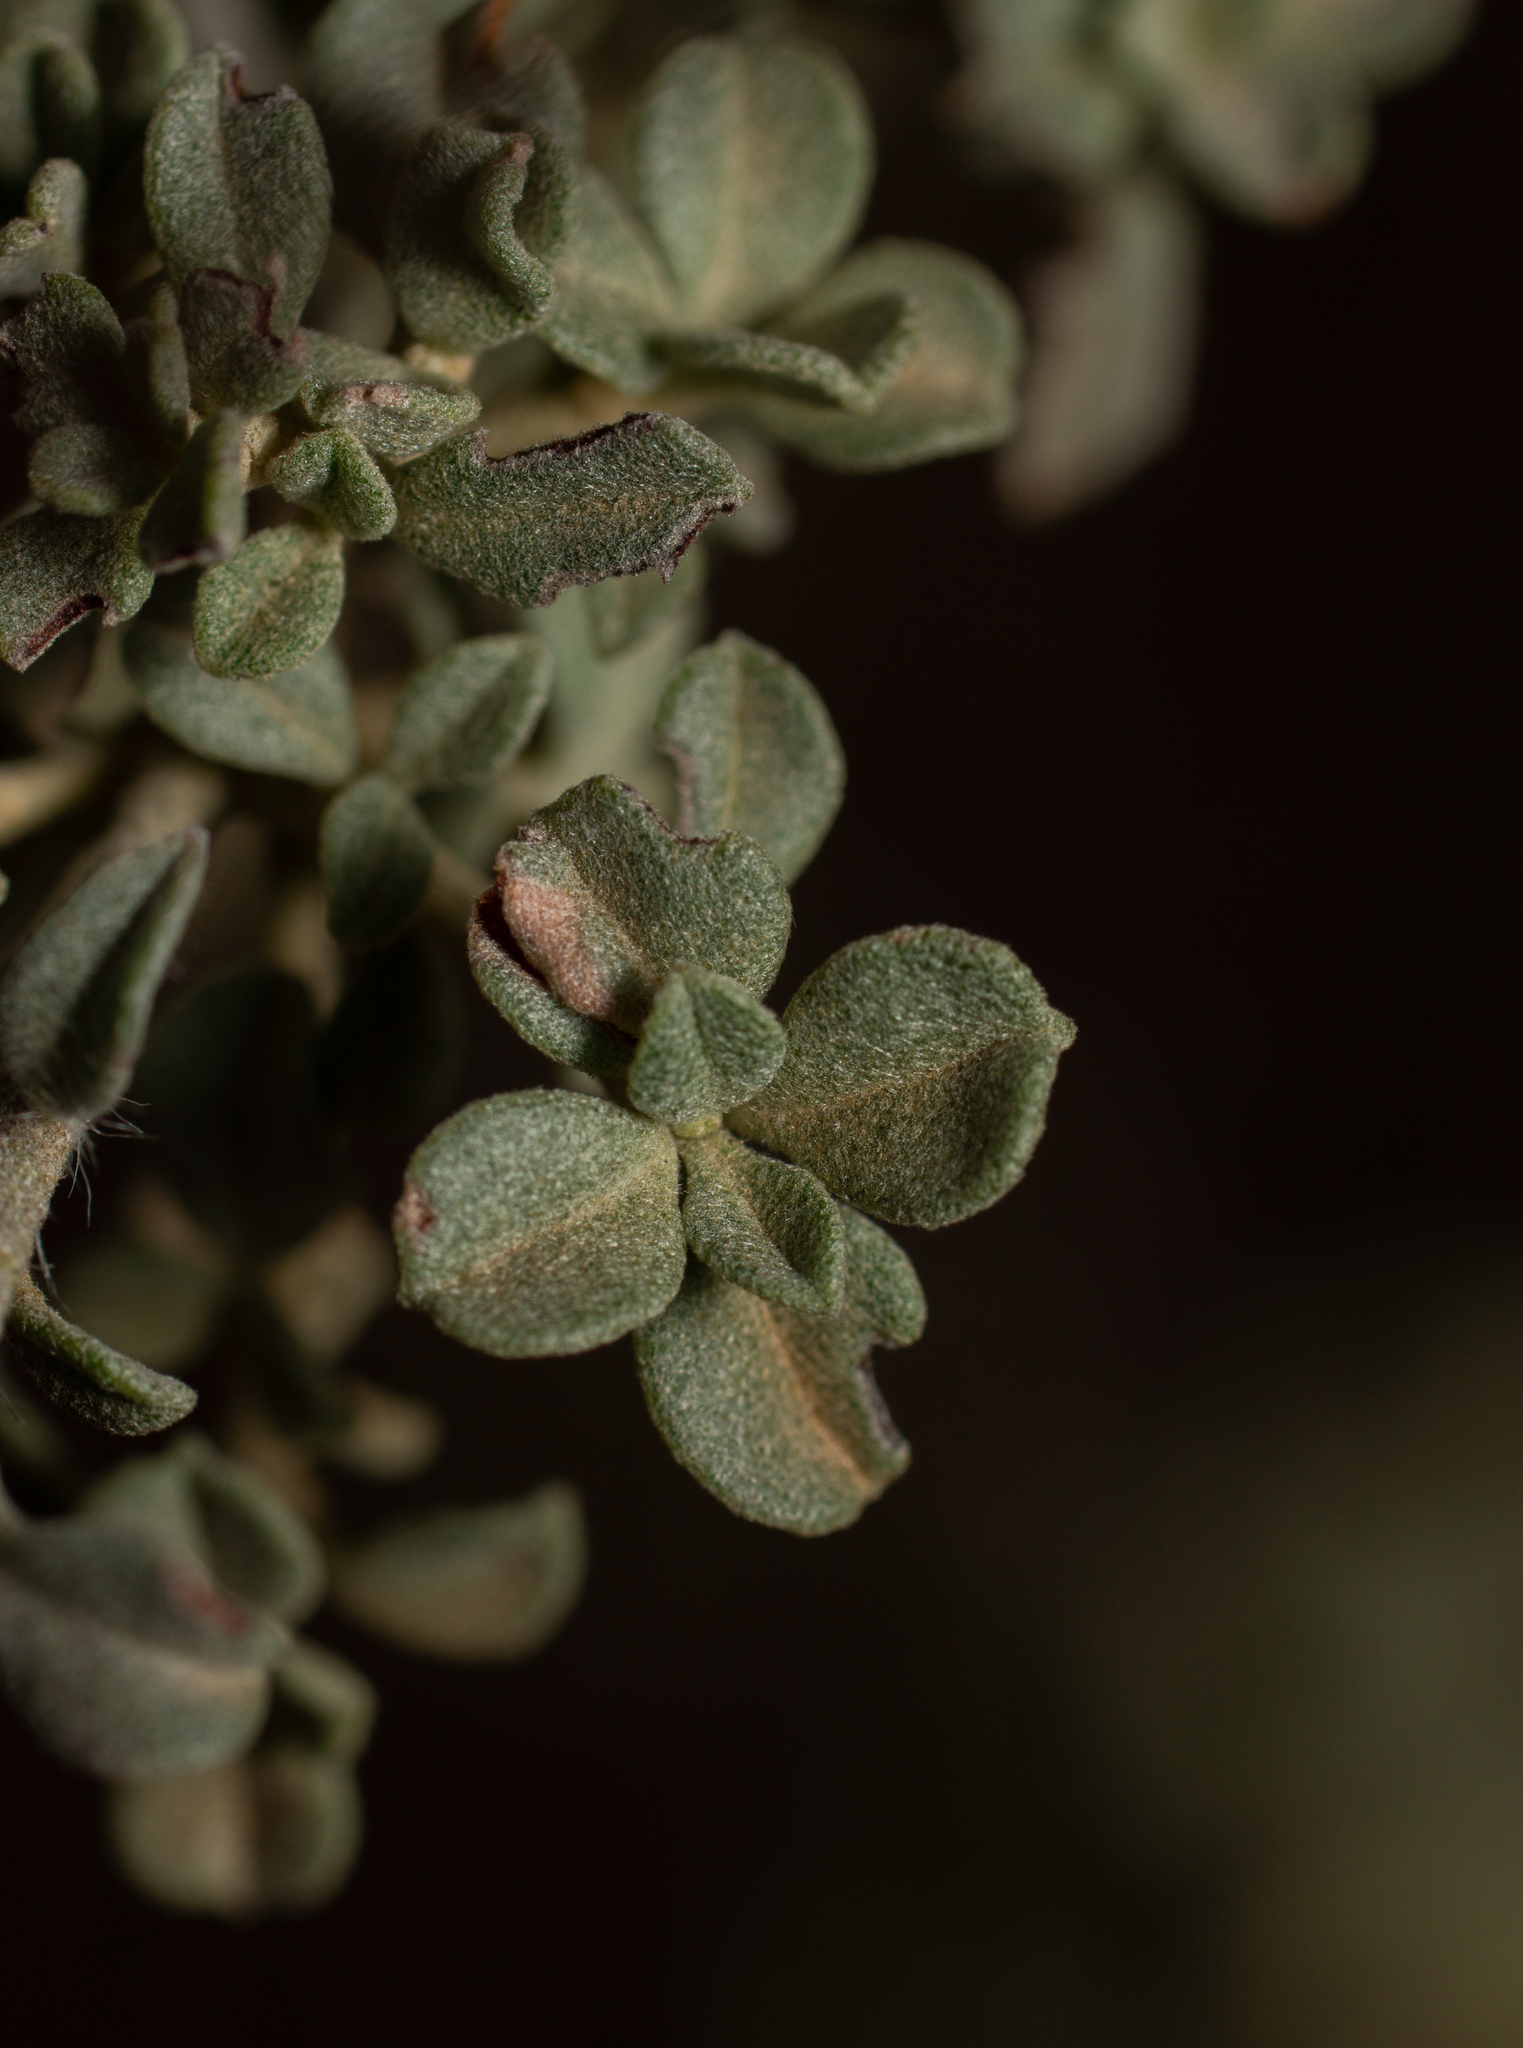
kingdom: Plantae
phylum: Tracheophyta
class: Magnoliopsida
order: Malvales
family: Cistaceae
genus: Cistus
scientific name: Cistus ocymoides
